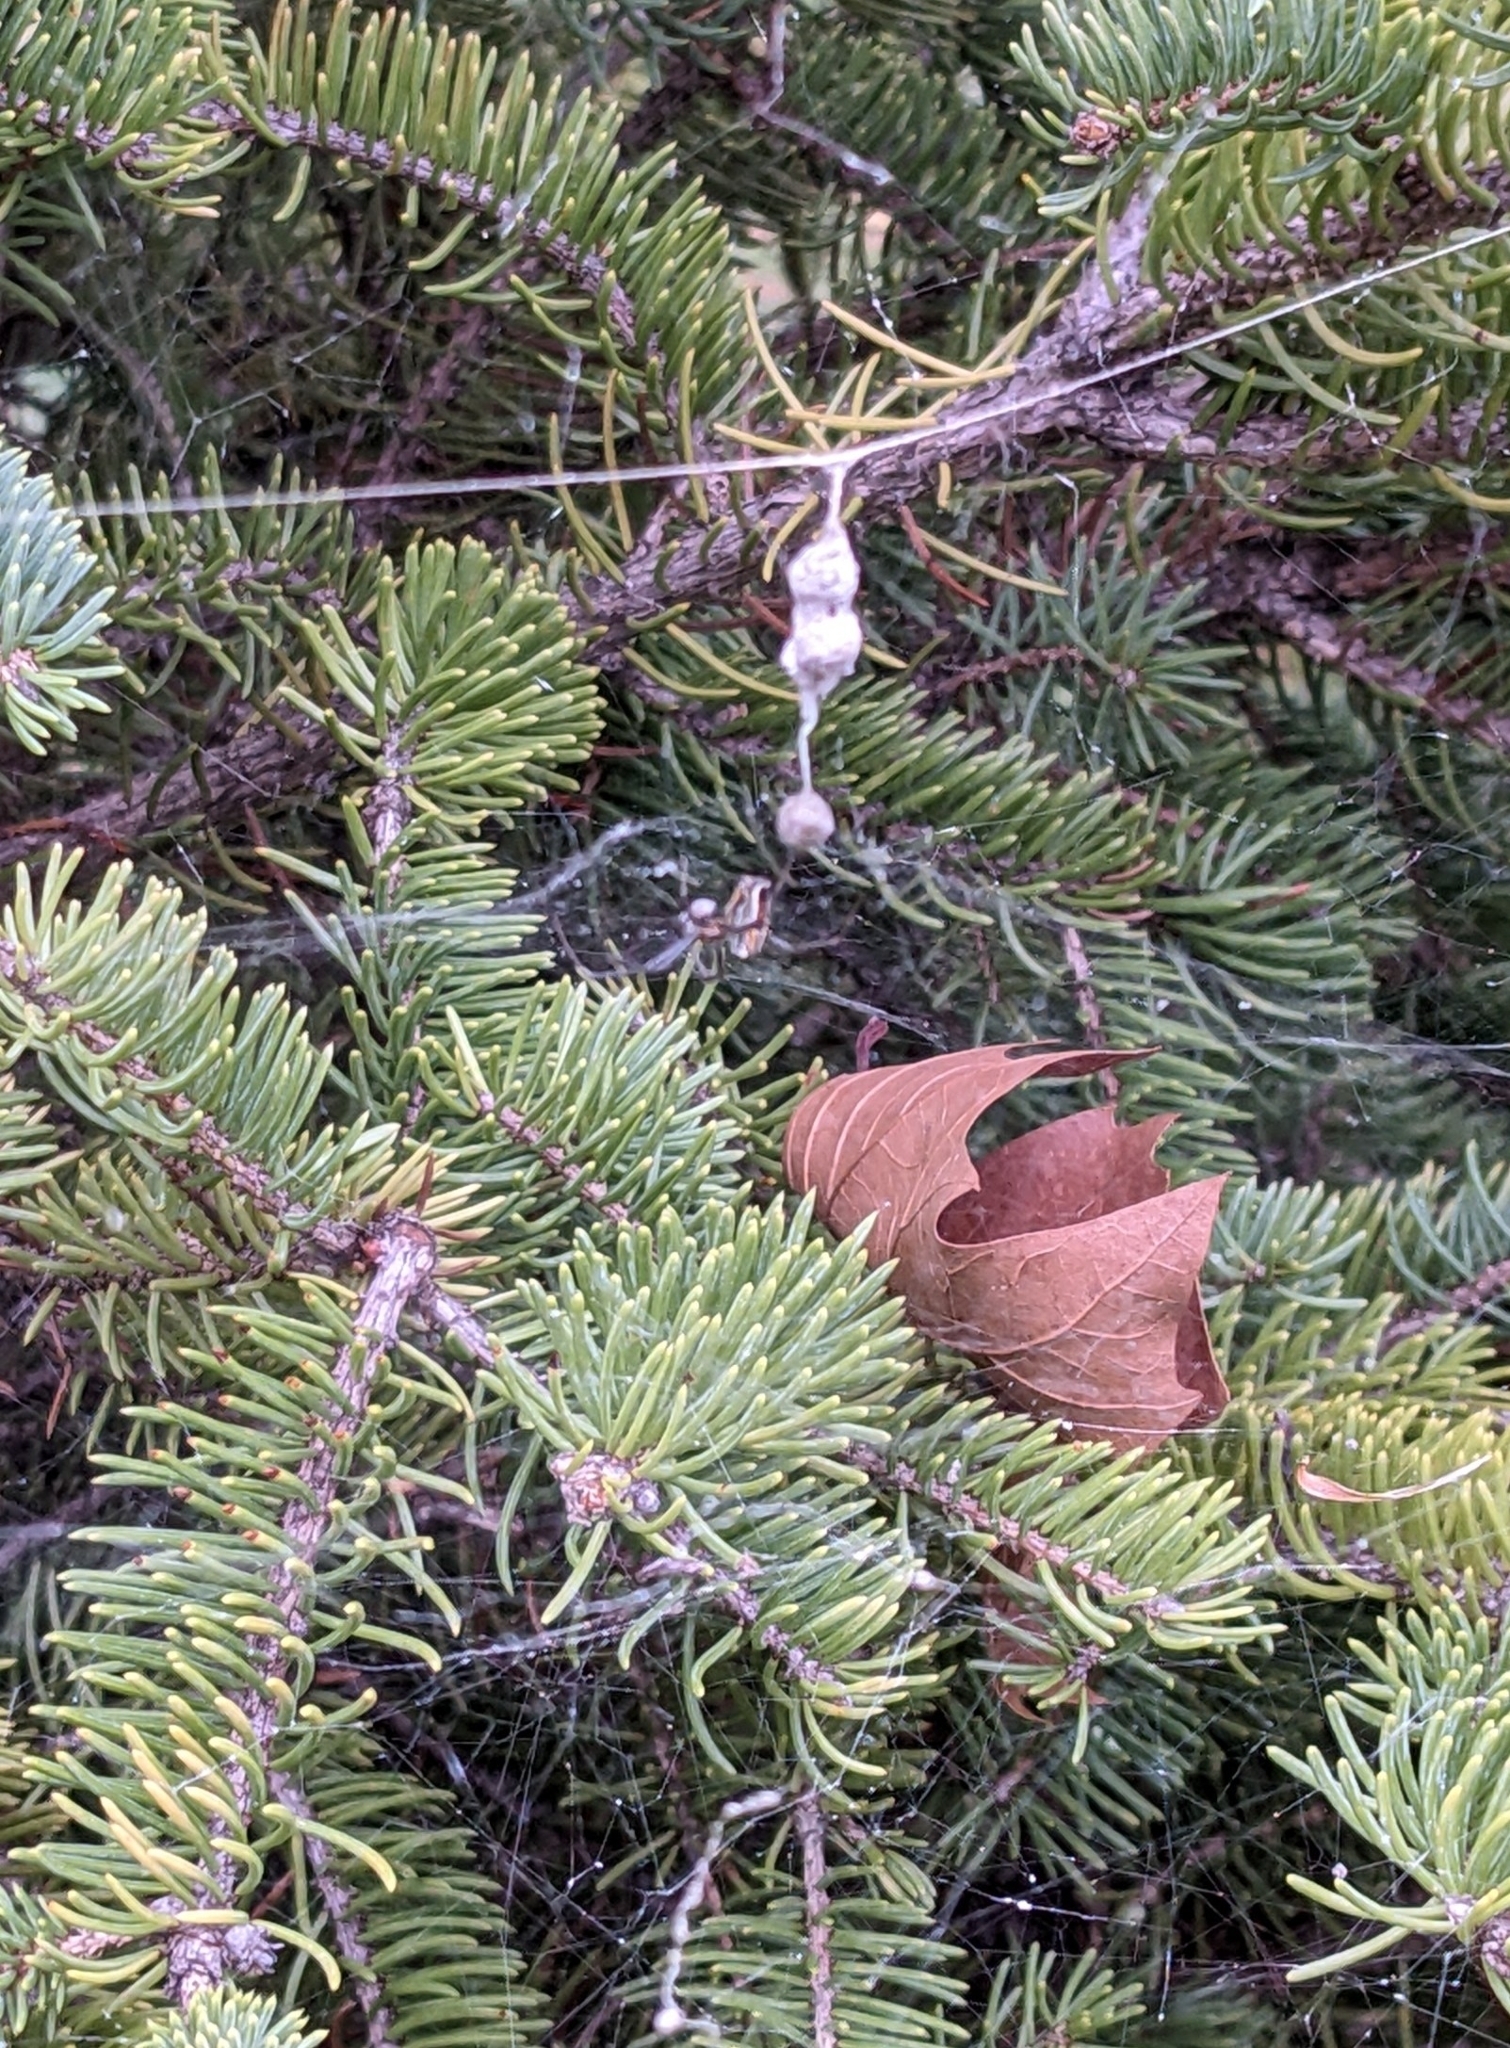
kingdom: Animalia
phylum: Arthropoda
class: Arachnida
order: Araneae
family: Araneidae
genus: Mecynogea
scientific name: Mecynogea lemniscata
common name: Orb weavers
